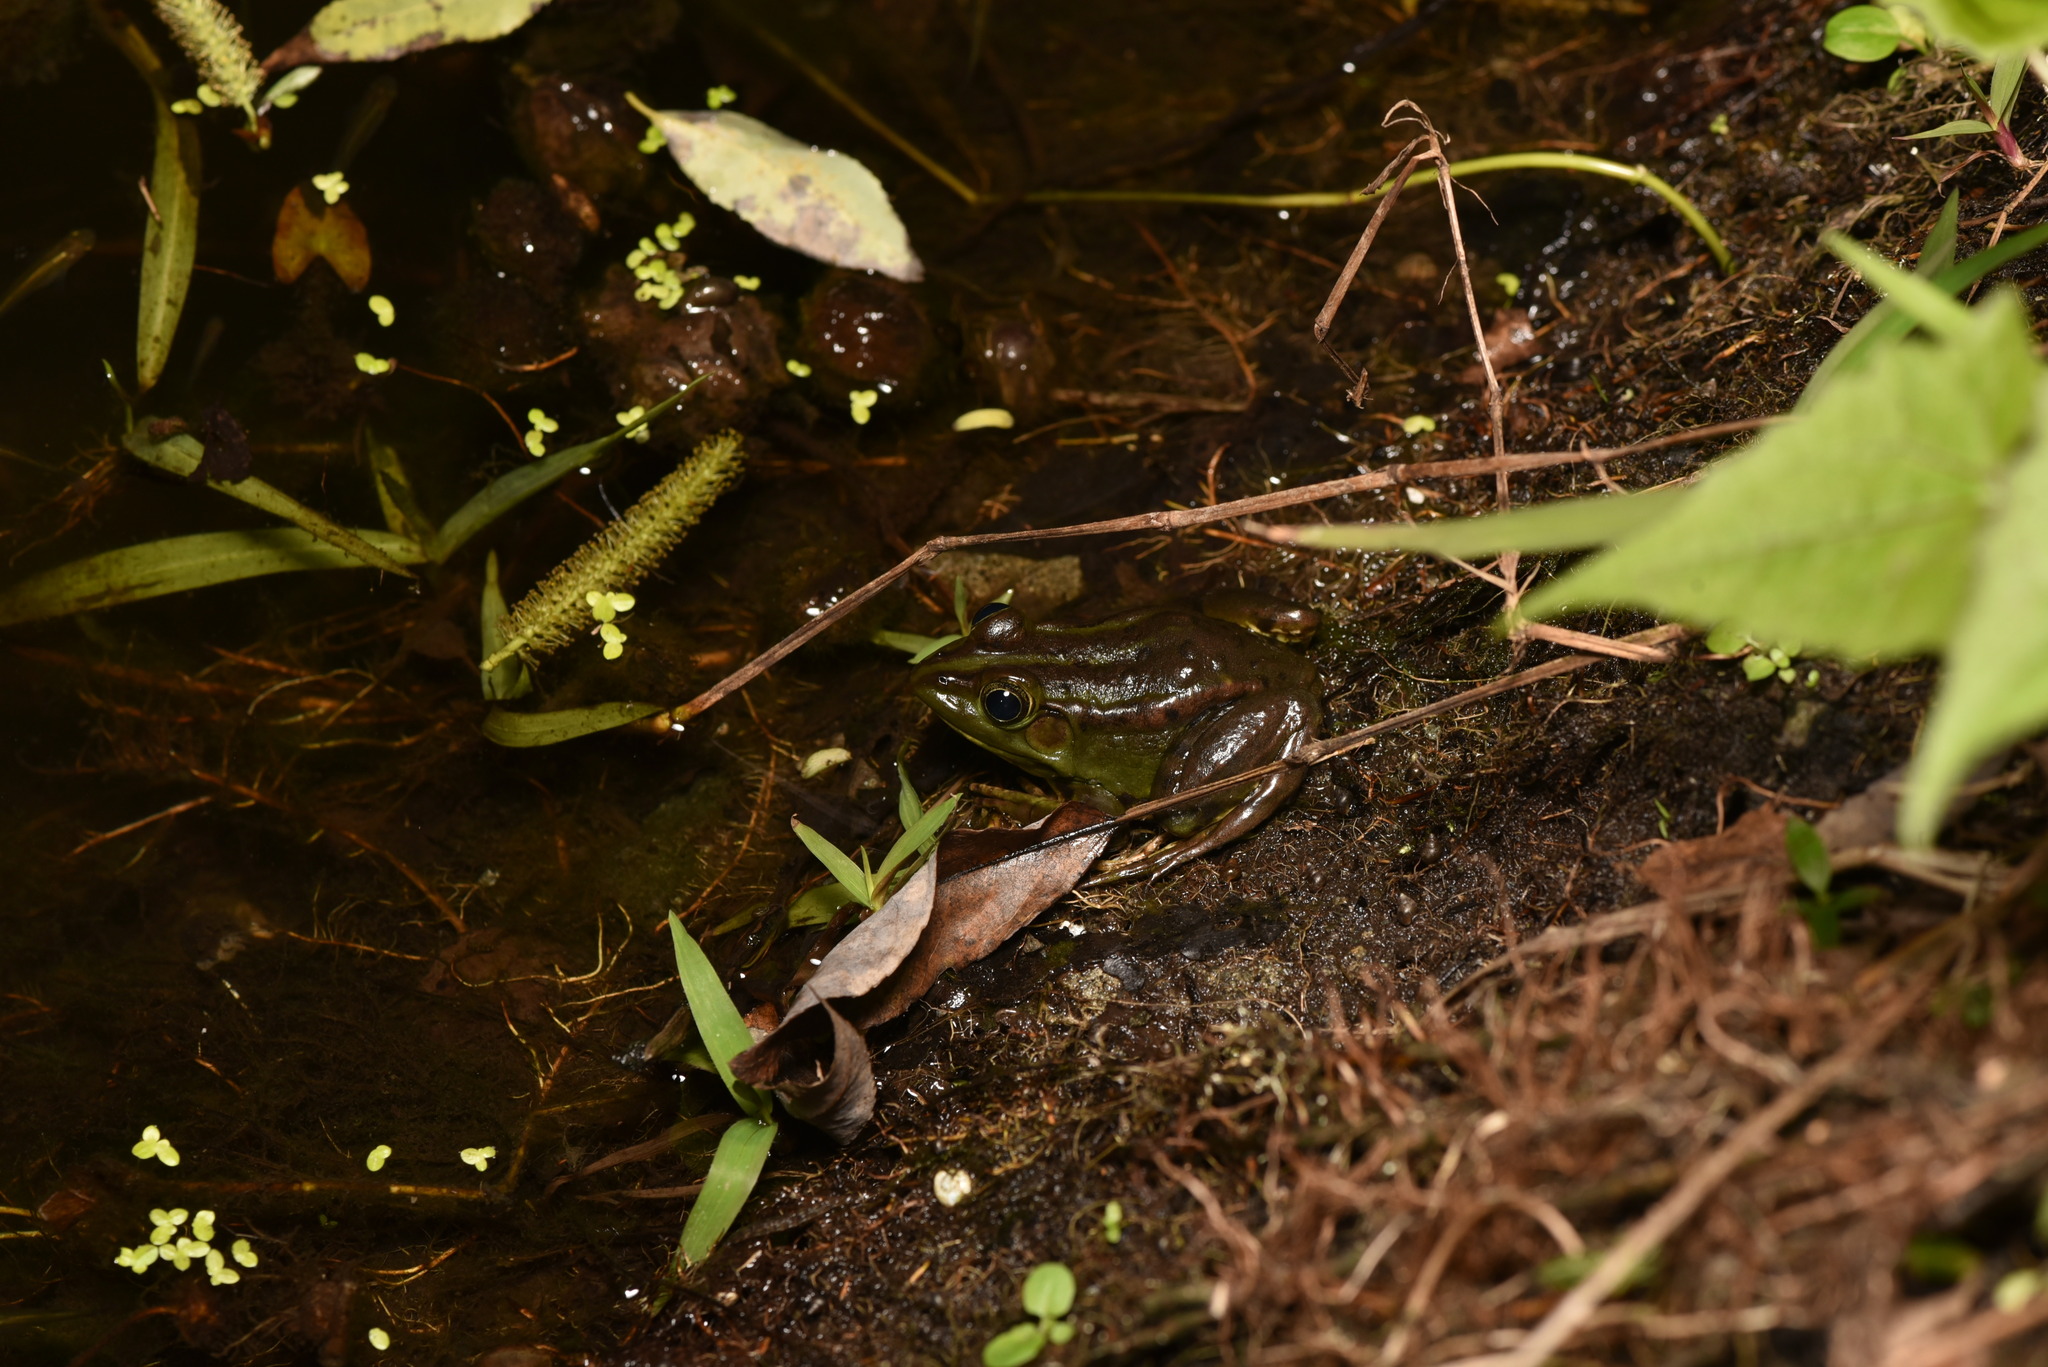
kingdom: Animalia
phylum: Chordata
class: Amphibia
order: Anura
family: Ranidae
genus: Pelophylax
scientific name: Pelophylax fukienensis
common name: Fukien gold-striped pond frog
